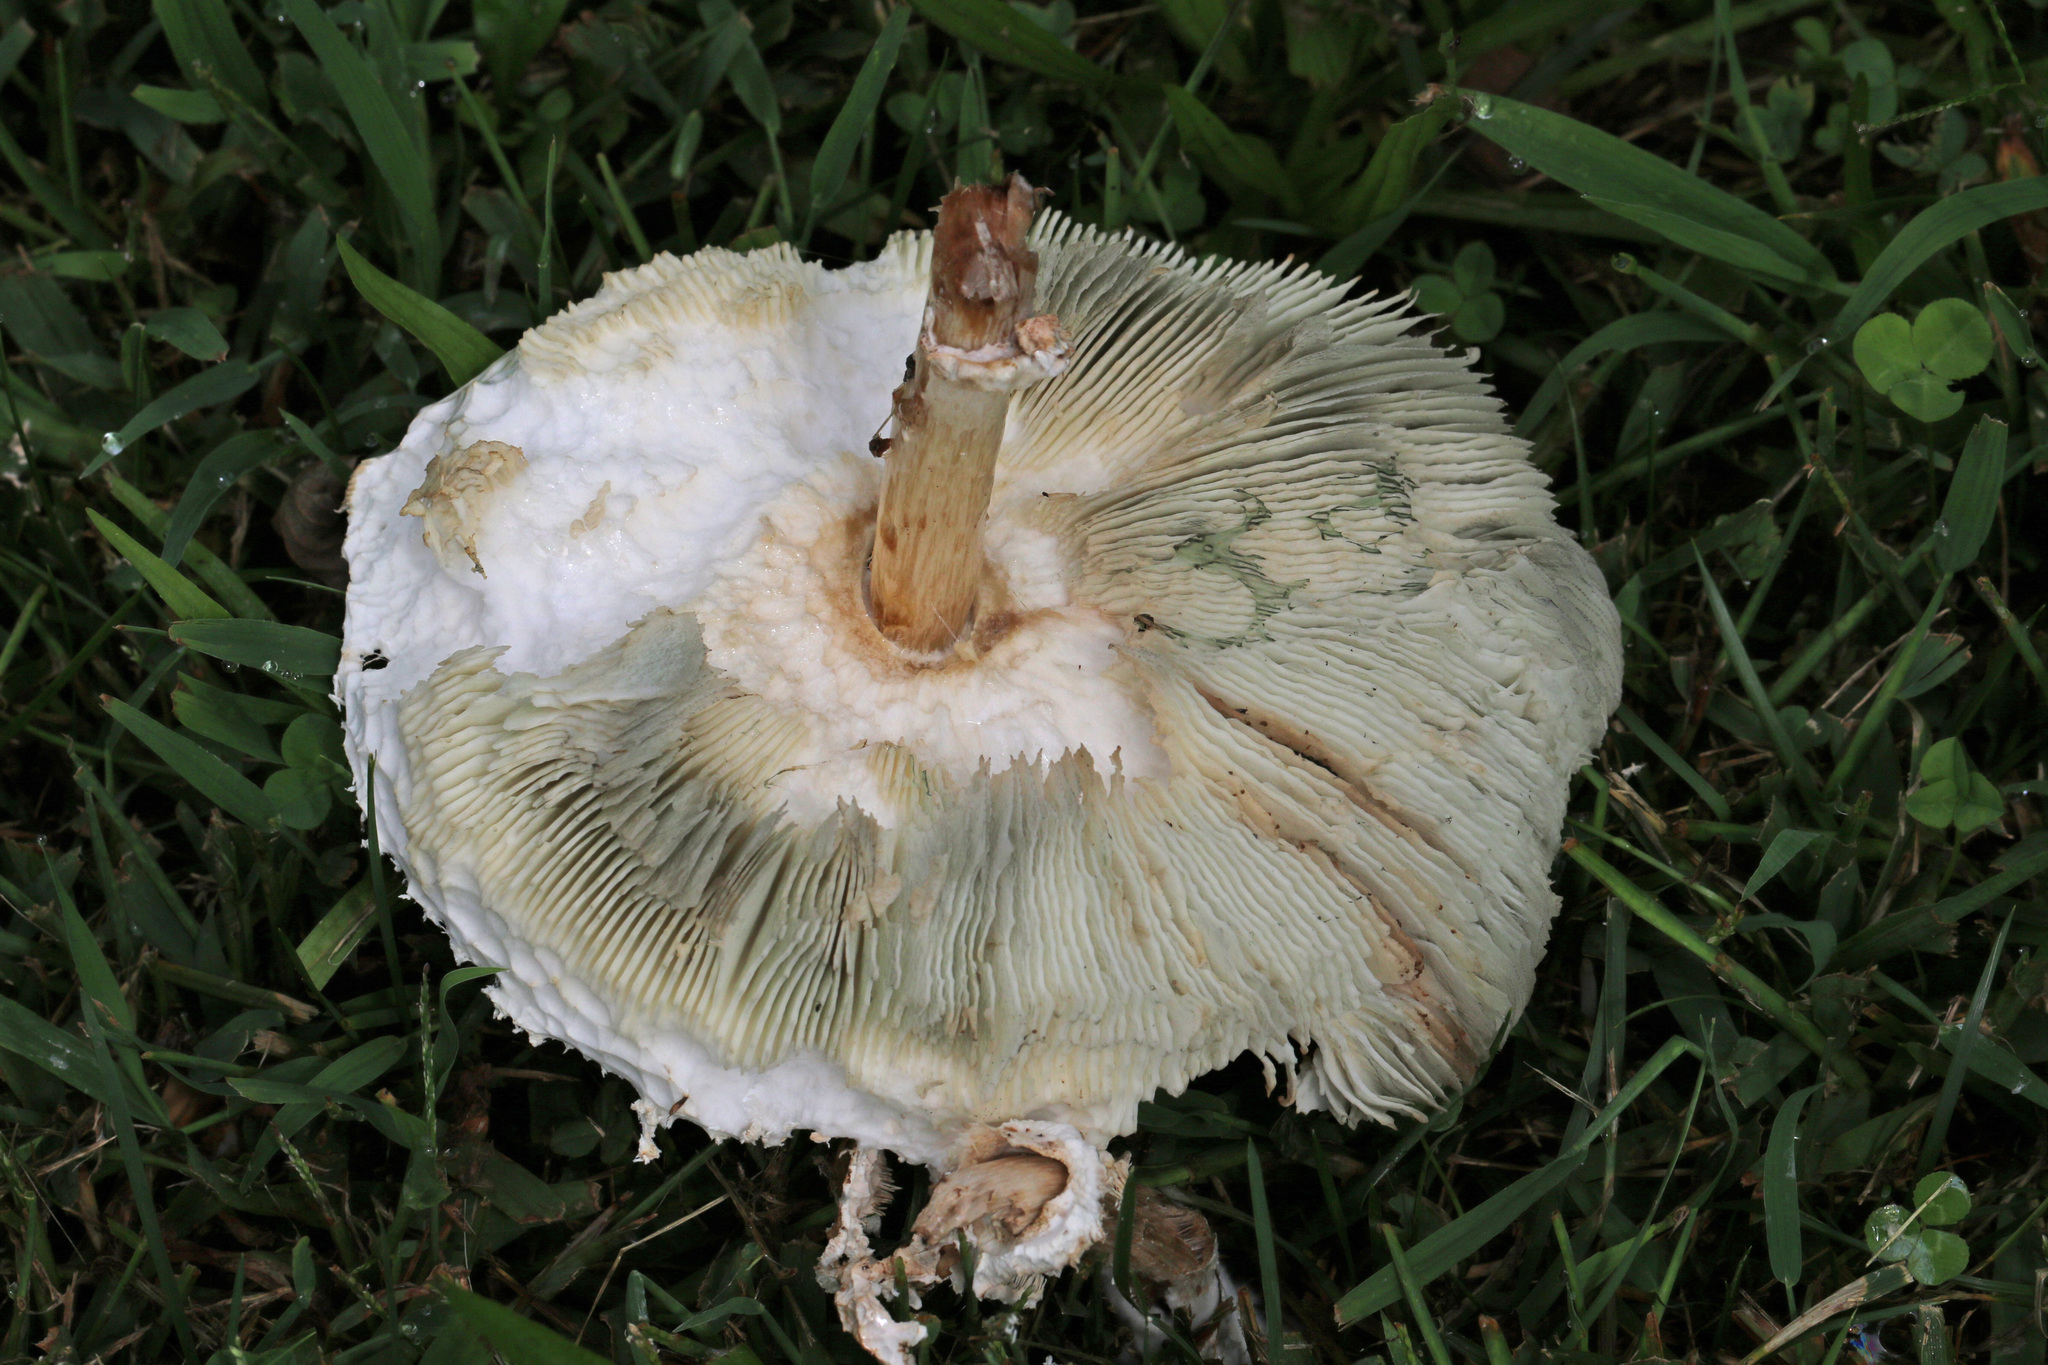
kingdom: Fungi
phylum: Basidiomycota
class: Agaricomycetes
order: Agaricales
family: Agaricaceae
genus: Chlorophyllum
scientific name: Chlorophyllum molybdites
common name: False parasol
